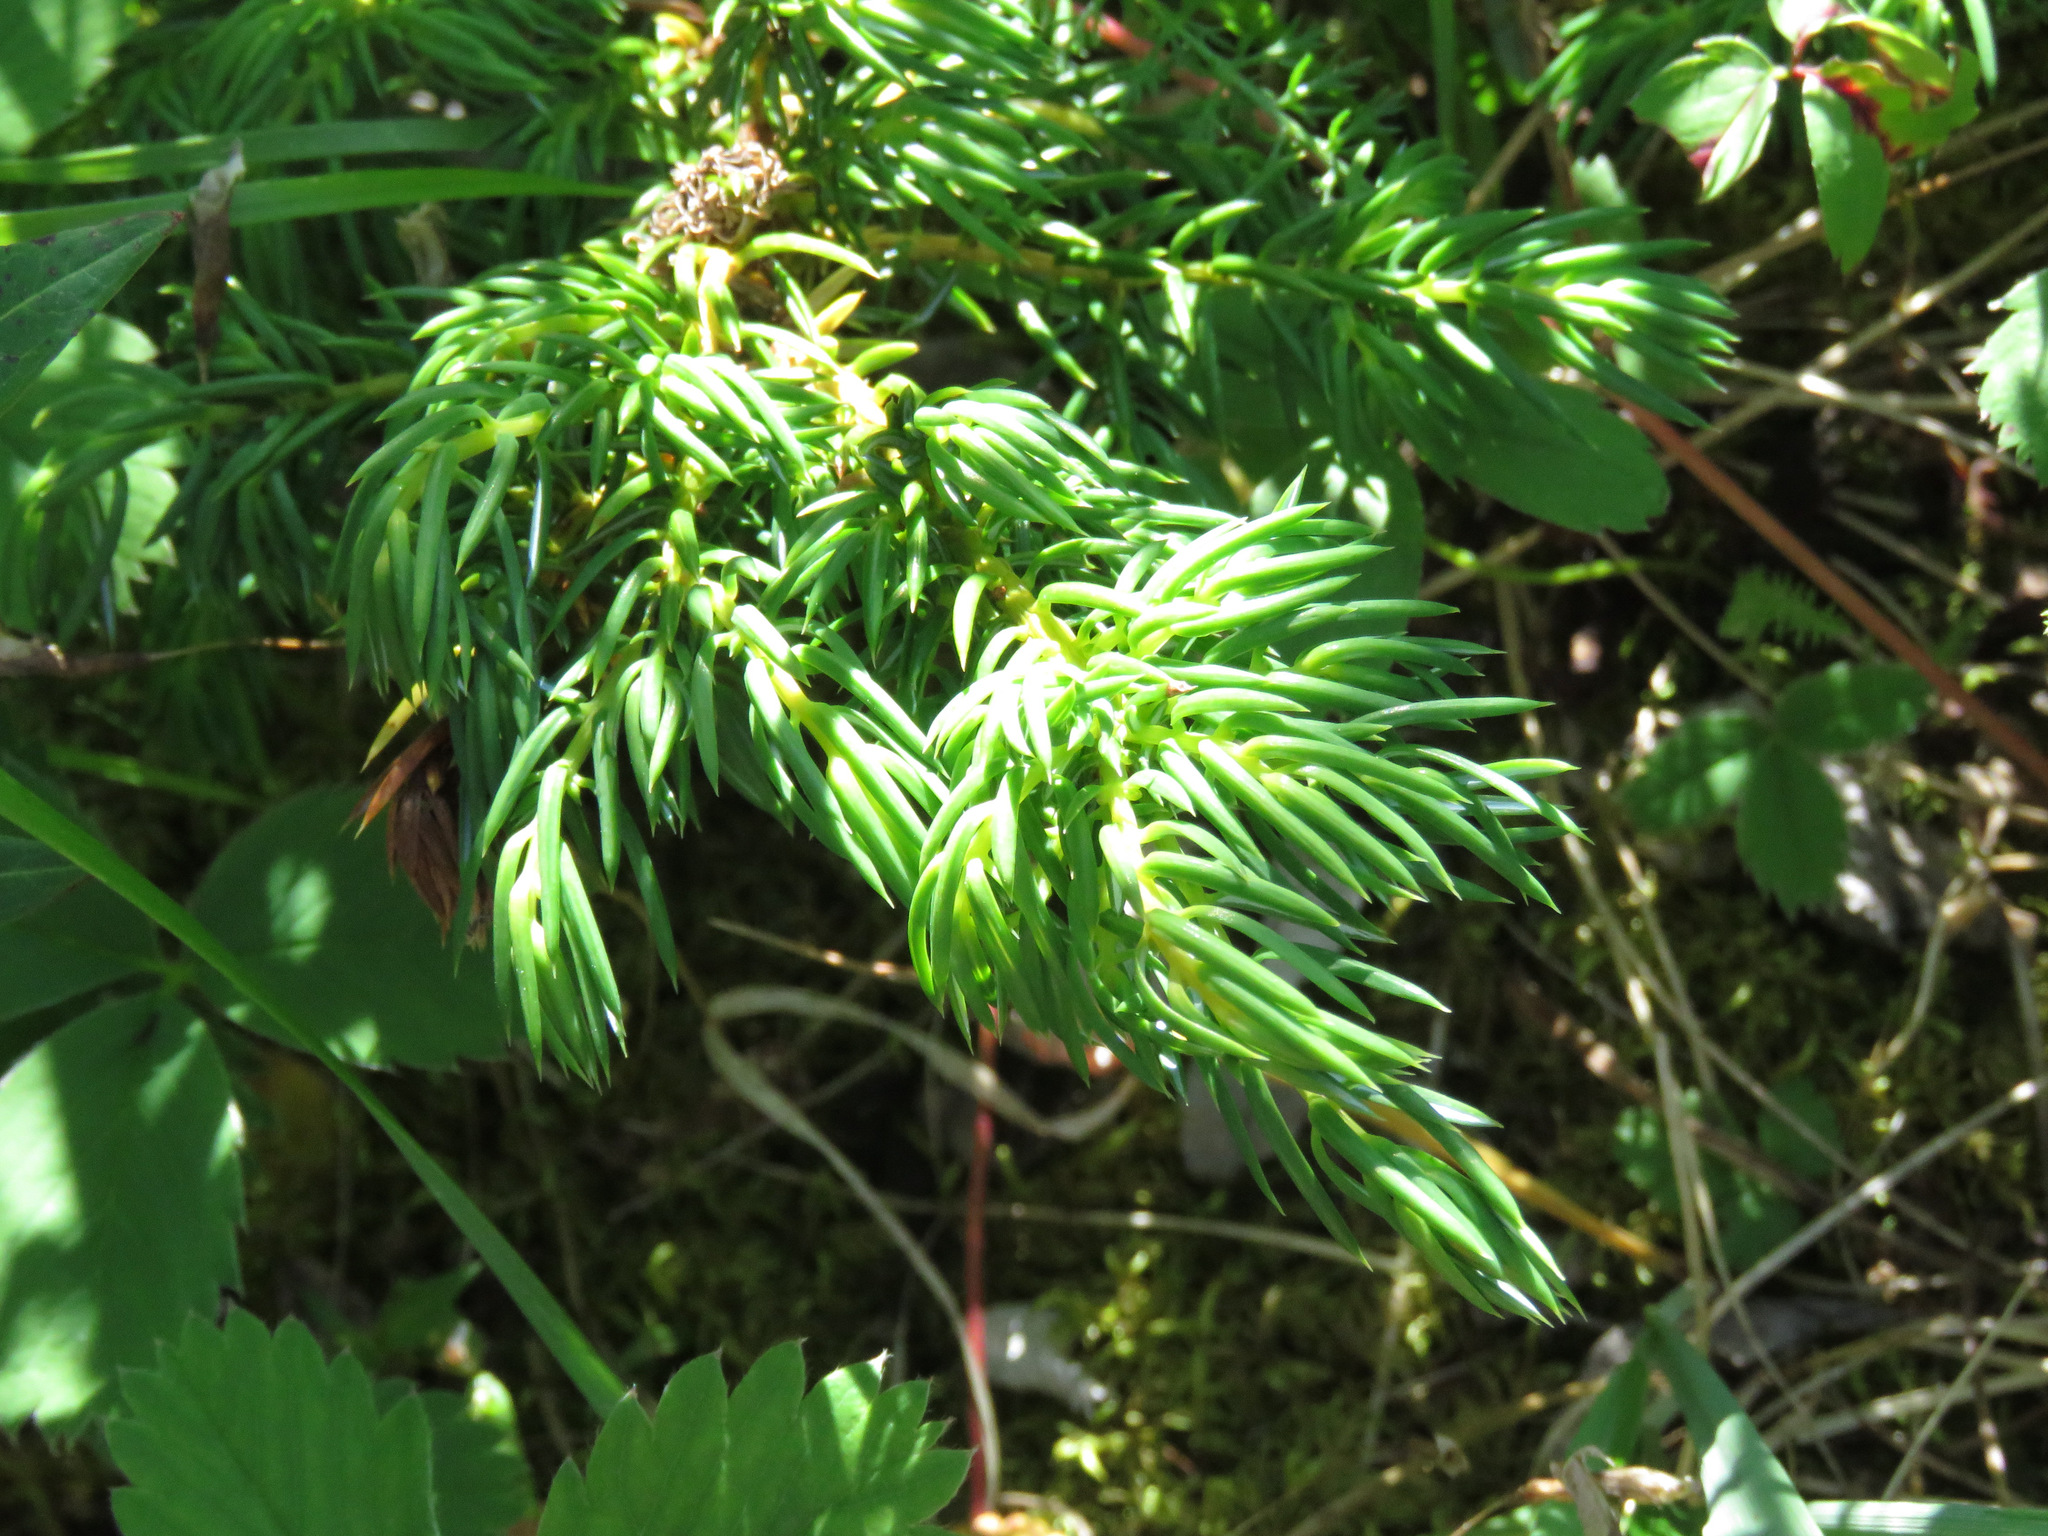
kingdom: Plantae
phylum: Tracheophyta
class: Pinopsida
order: Pinales
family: Cupressaceae
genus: Juniperus
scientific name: Juniperus communis
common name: Common juniper
